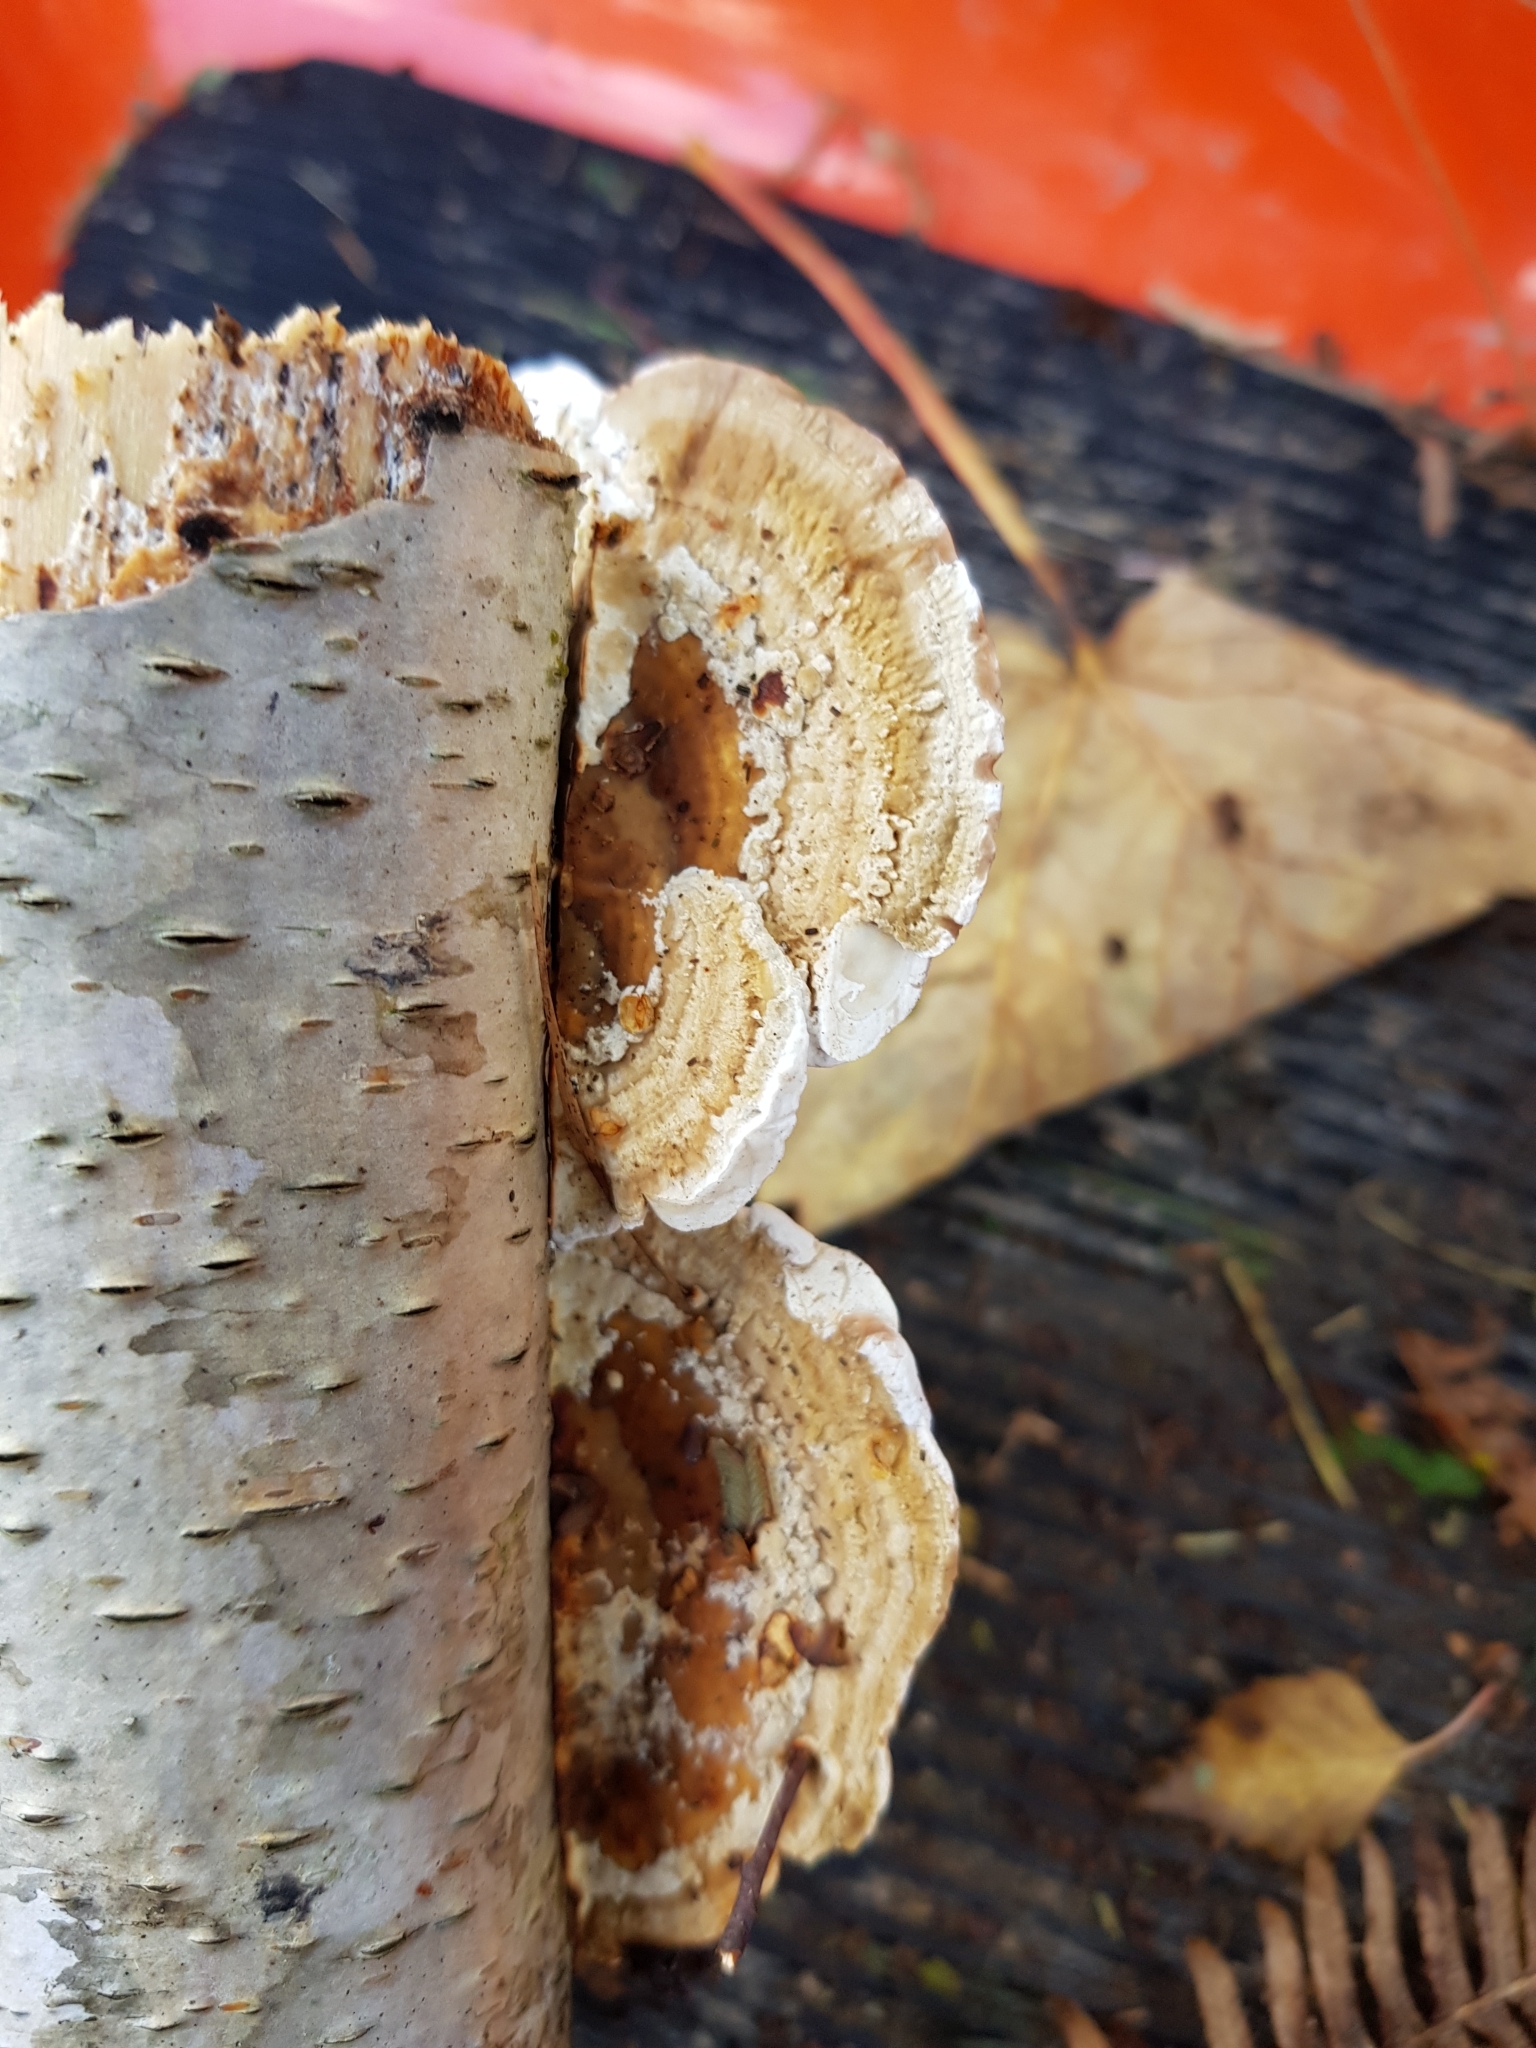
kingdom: Fungi
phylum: Basidiomycota
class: Agaricomycetes
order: Polyporales
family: Polyporaceae
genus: Daedaleopsis
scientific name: Daedaleopsis confragosa
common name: Blushing bracket
